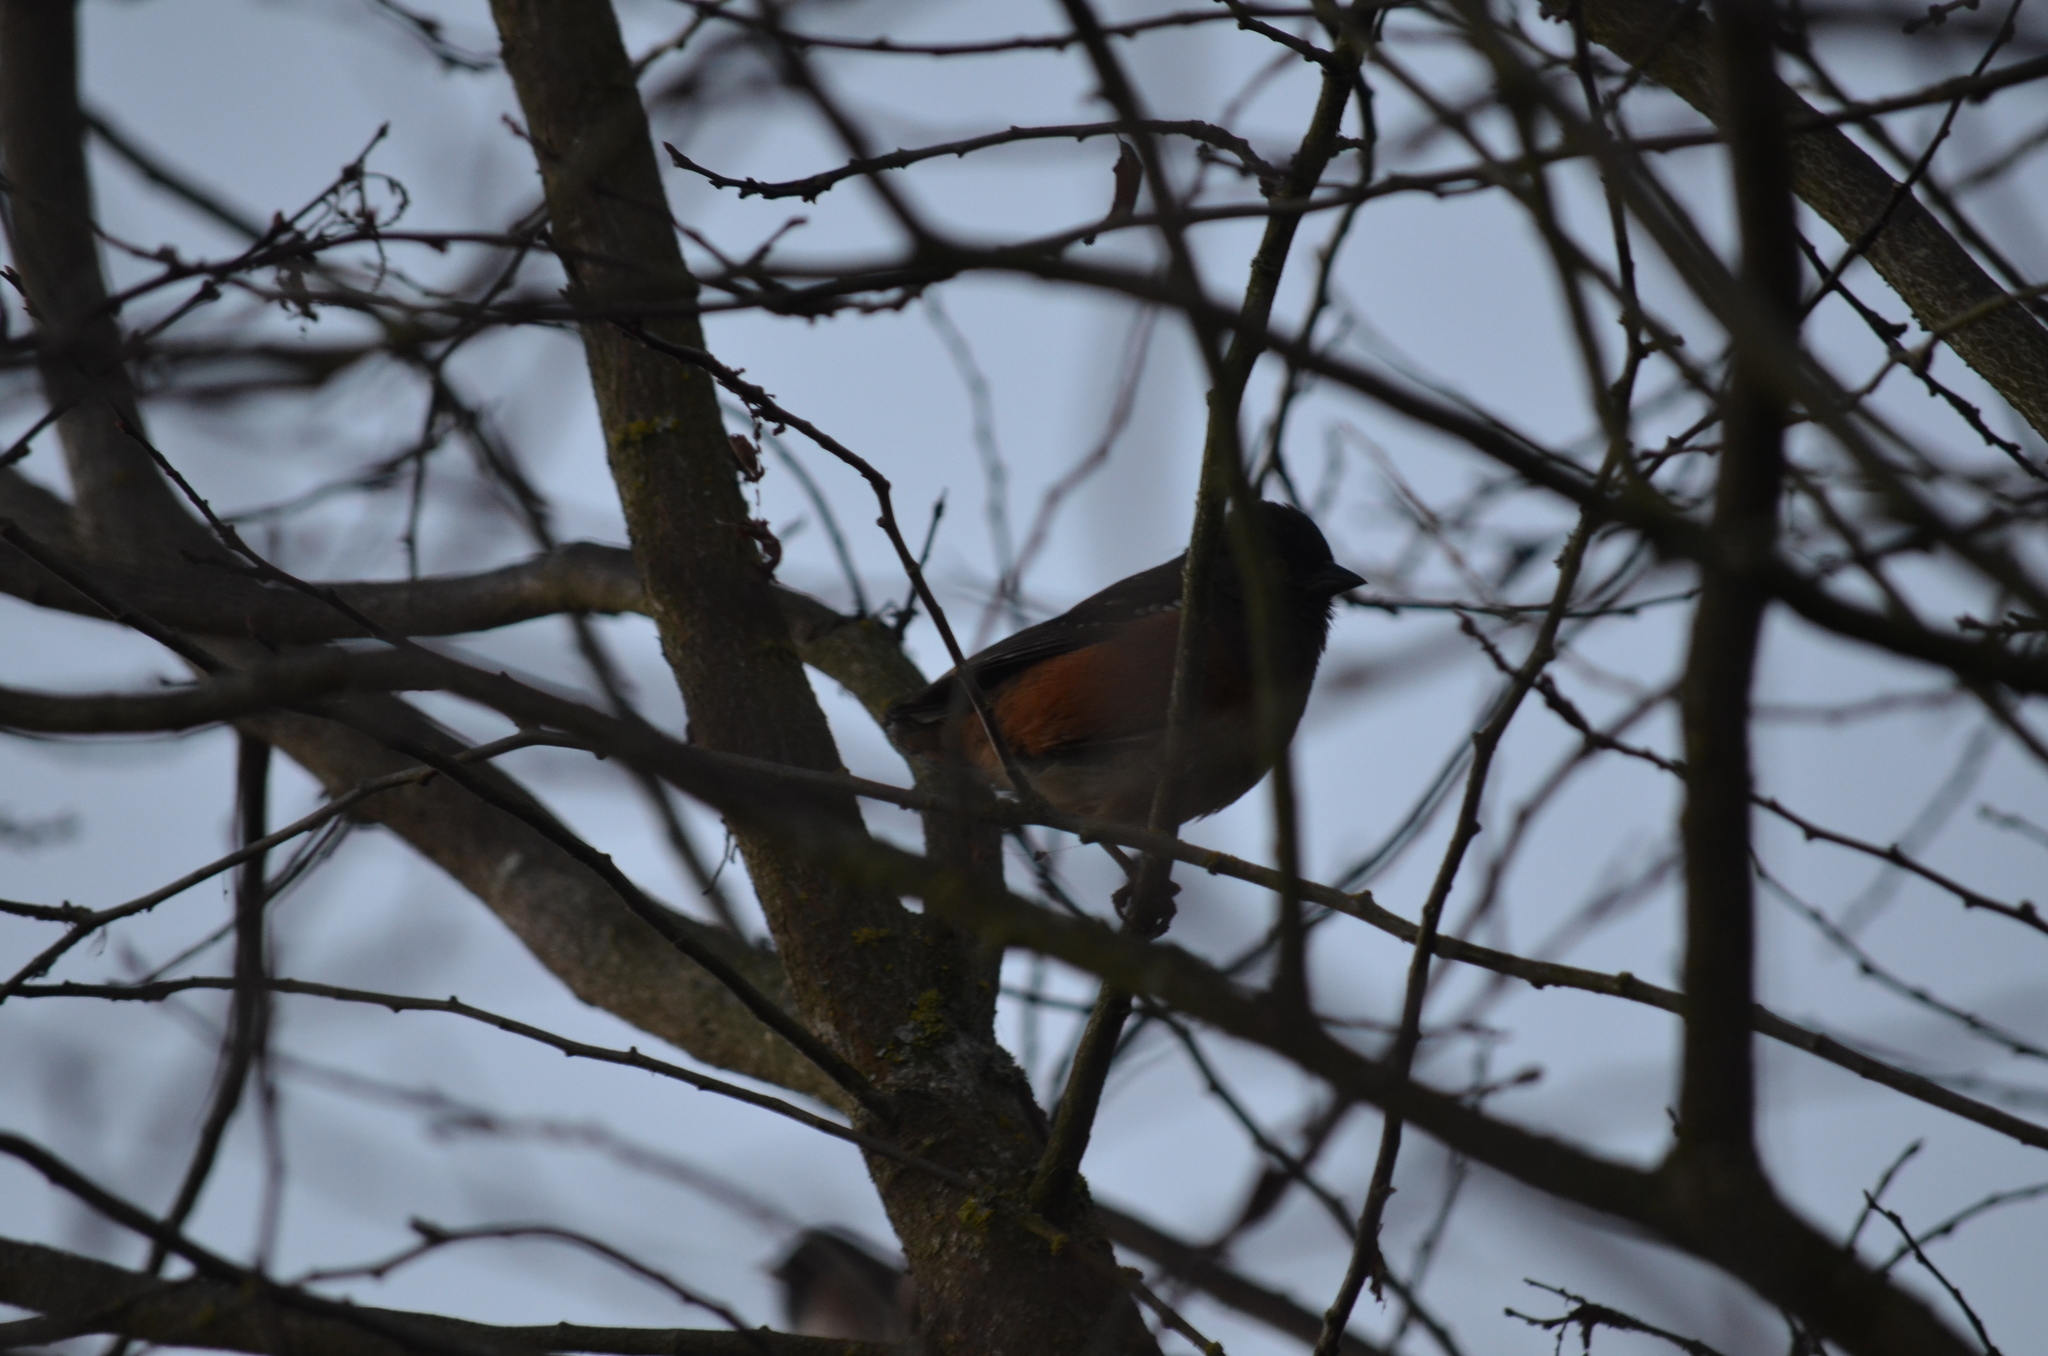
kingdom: Animalia
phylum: Chordata
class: Aves
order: Passeriformes
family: Passerellidae
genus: Pipilo
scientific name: Pipilo maculatus
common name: Spotted towhee
